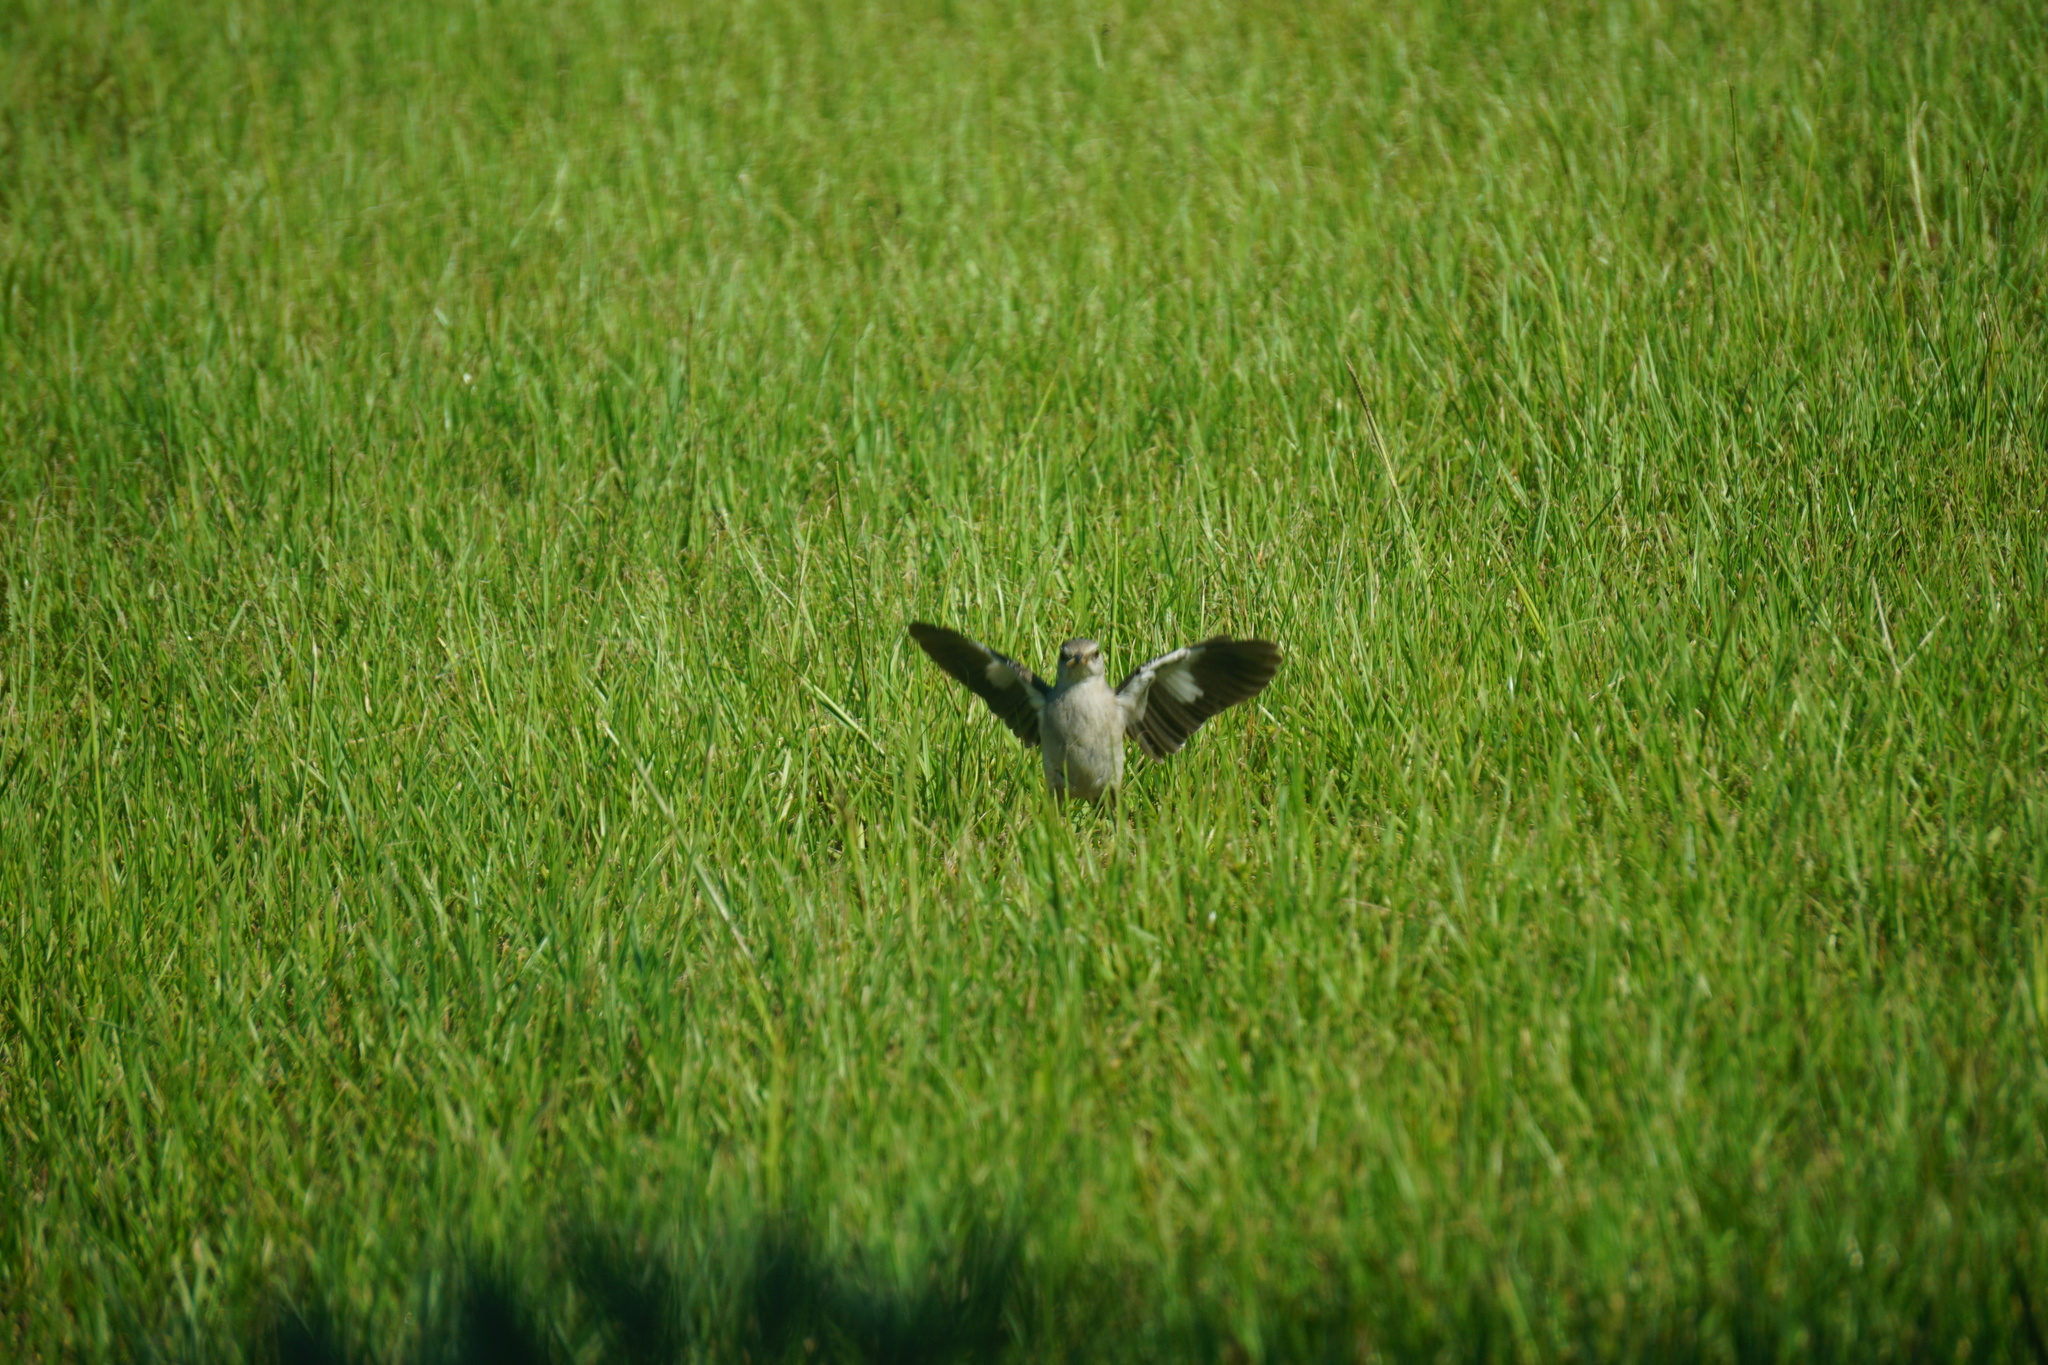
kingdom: Animalia
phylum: Chordata
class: Aves
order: Passeriformes
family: Mimidae
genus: Mimus
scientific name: Mimus polyglottos
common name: Northern mockingbird
